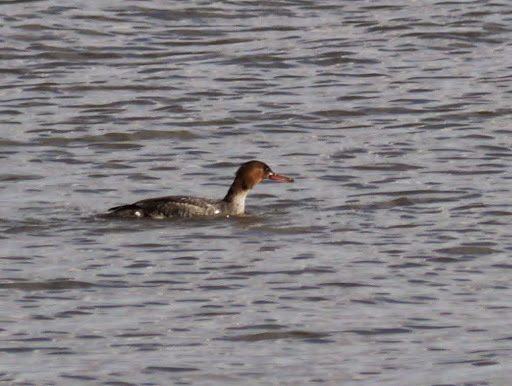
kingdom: Animalia
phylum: Chordata
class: Aves
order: Anseriformes
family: Anatidae
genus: Mergus
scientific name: Mergus serrator
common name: Red-breasted merganser
